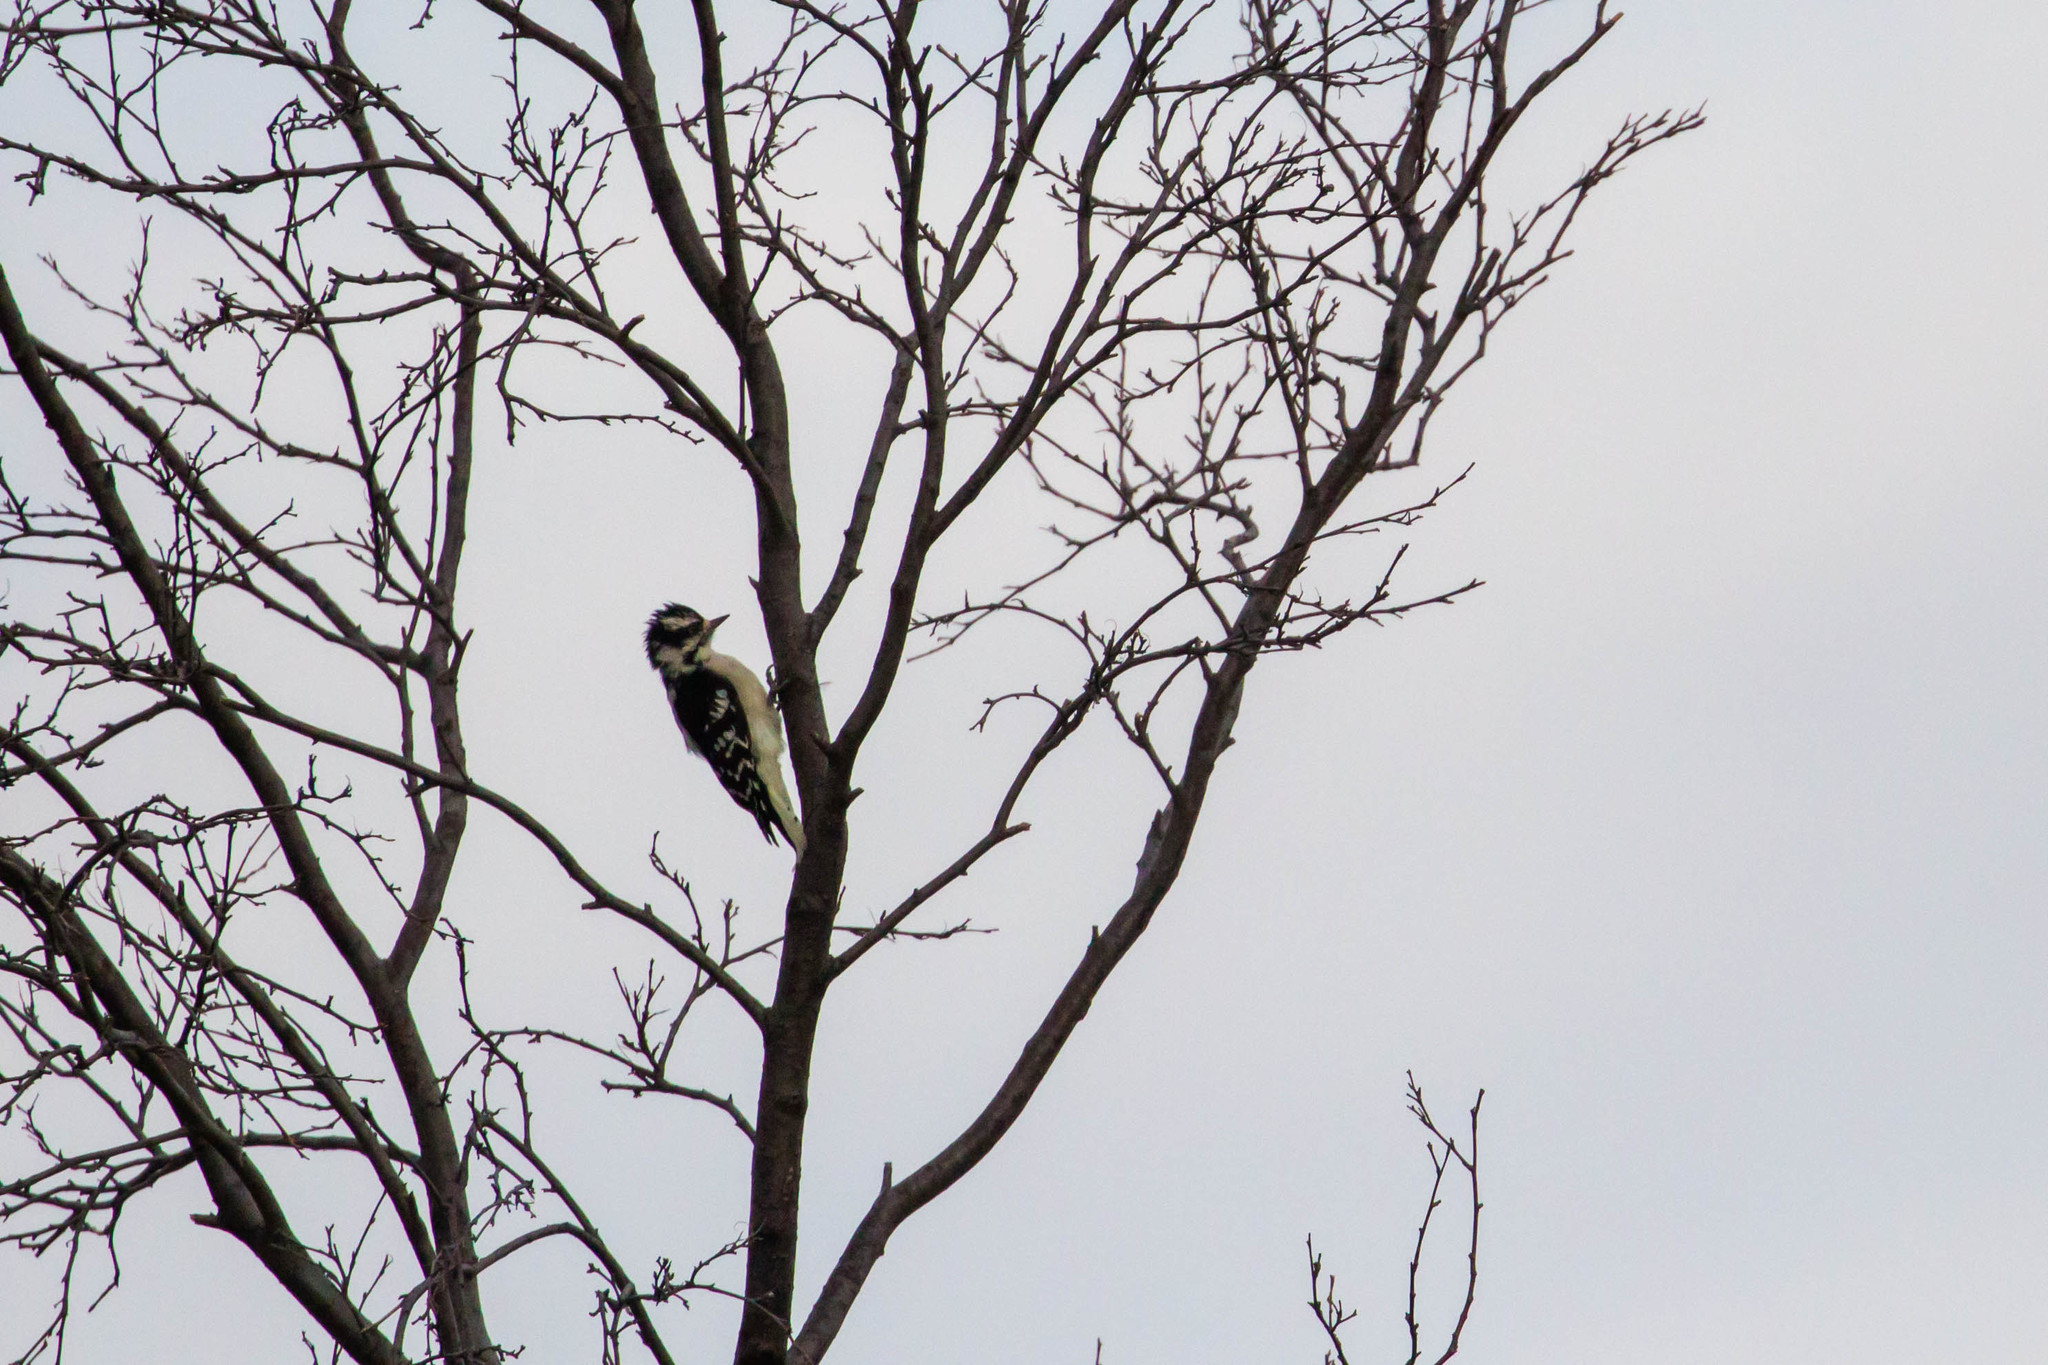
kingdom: Animalia
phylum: Chordata
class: Aves
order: Piciformes
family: Picidae
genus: Dryobates
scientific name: Dryobates pubescens
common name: Downy woodpecker
